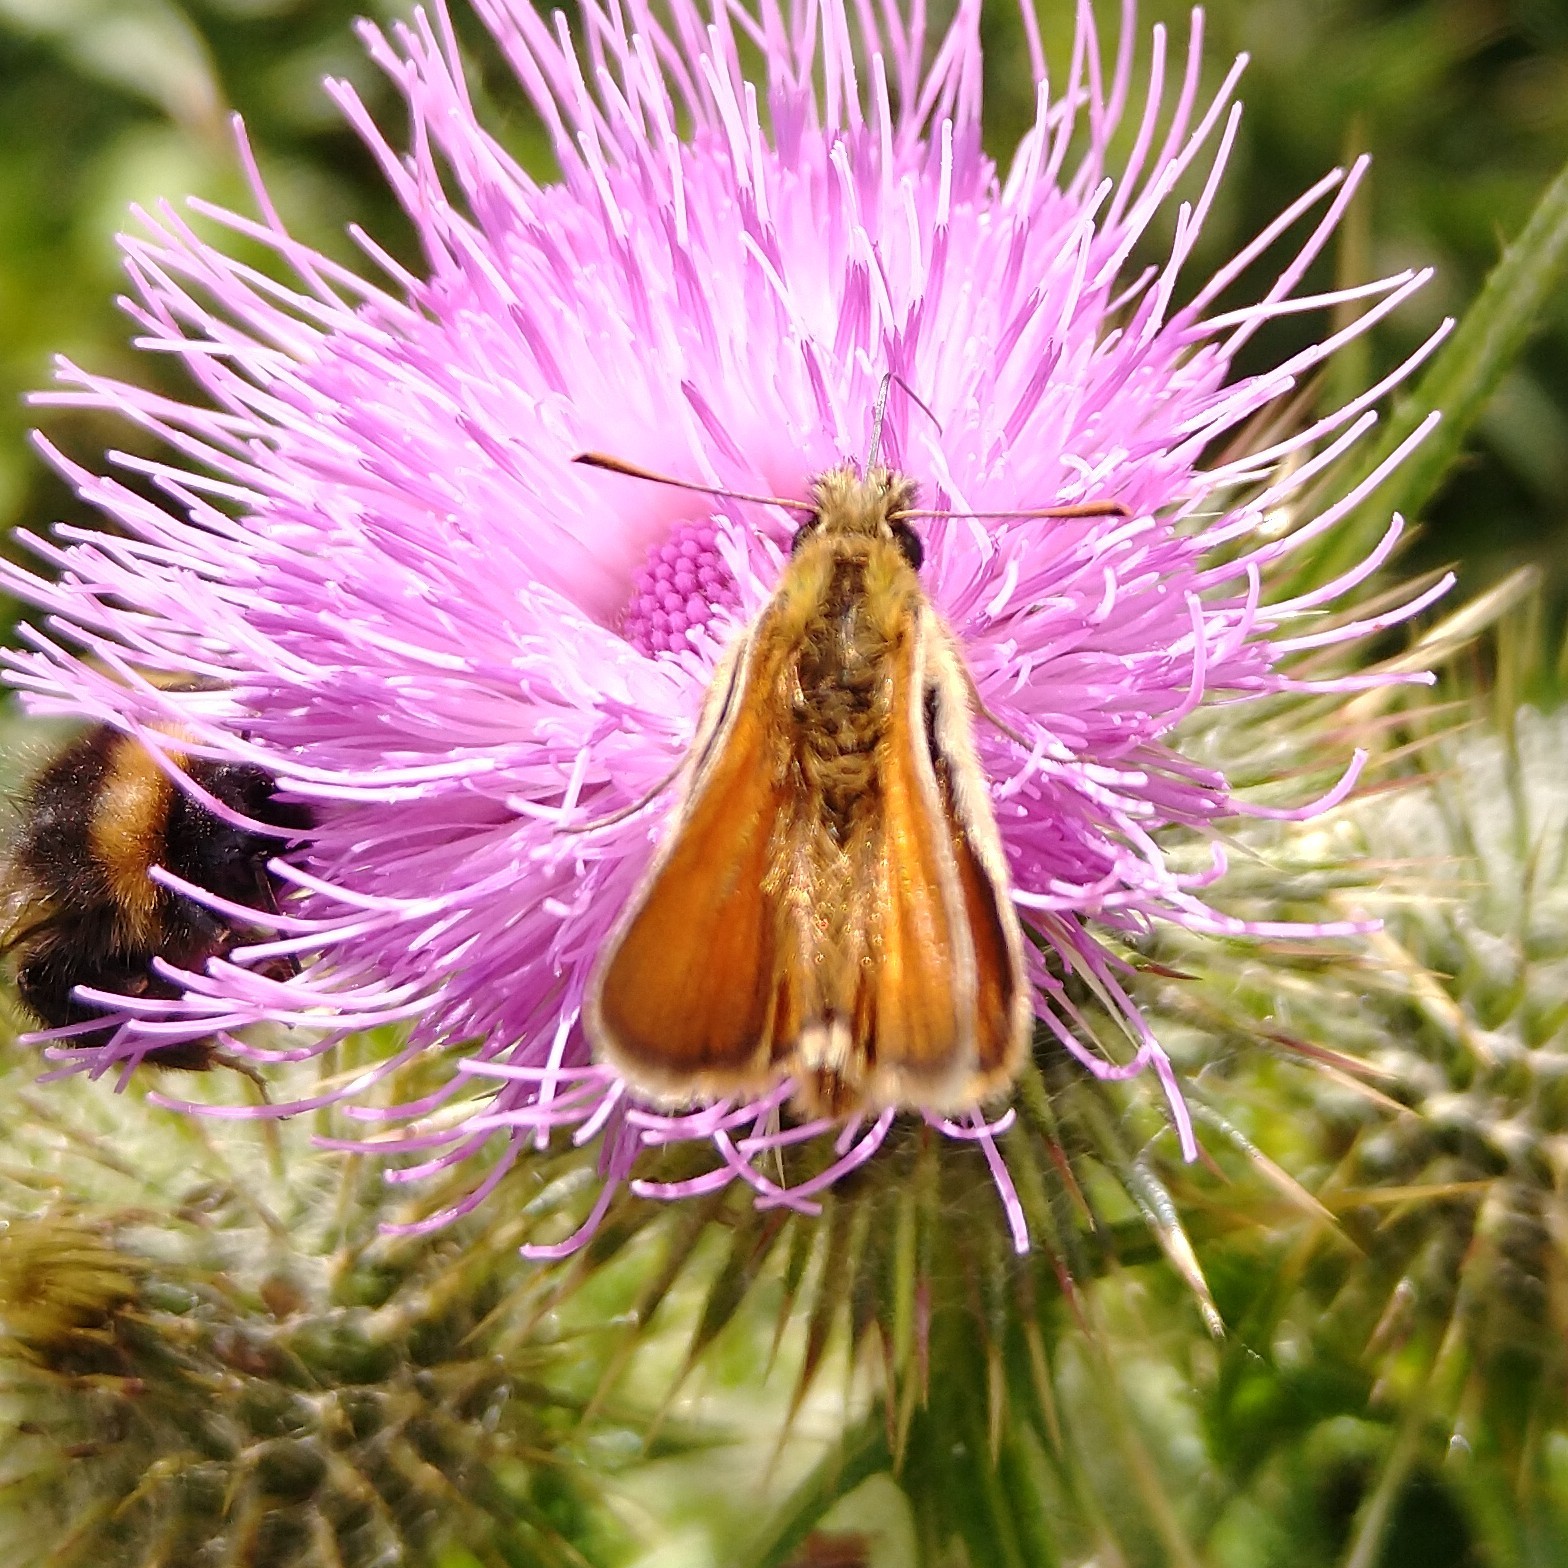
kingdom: Animalia
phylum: Arthropoda
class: Insecta
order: Lepidoptera
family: Hesperiidae
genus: Thymelicus
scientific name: Thymelicus sylvestris
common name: Small skipper
